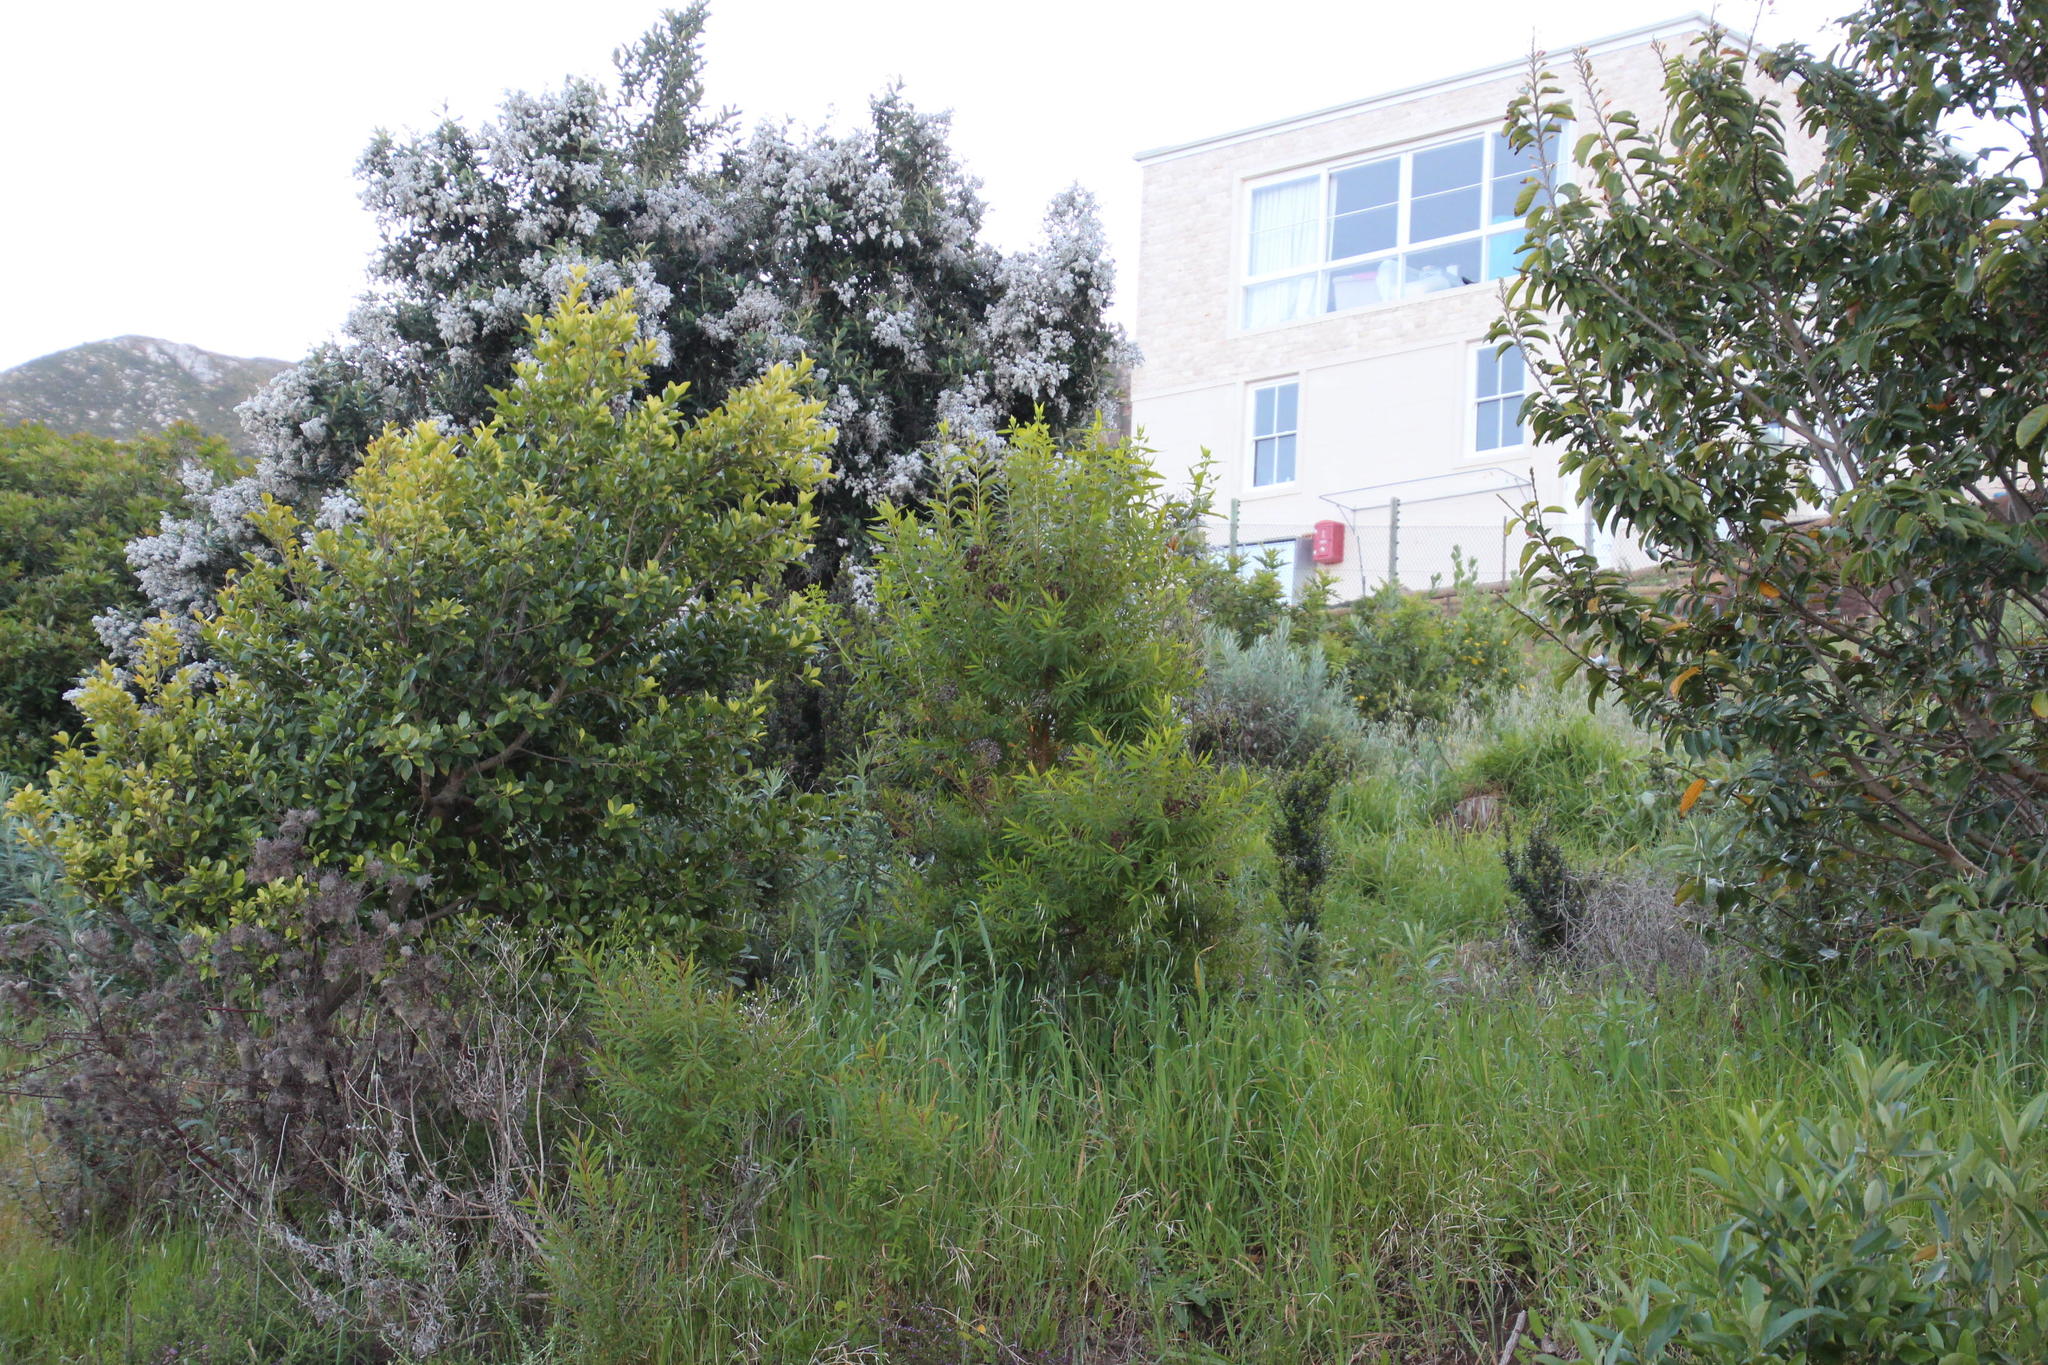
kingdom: Plantae
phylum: Tracheophyta
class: Magnoliopsida
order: Malpighiales
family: Hypericaceae
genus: Hypericum
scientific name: Hypericum canariense
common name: Canary island st. johnswort
